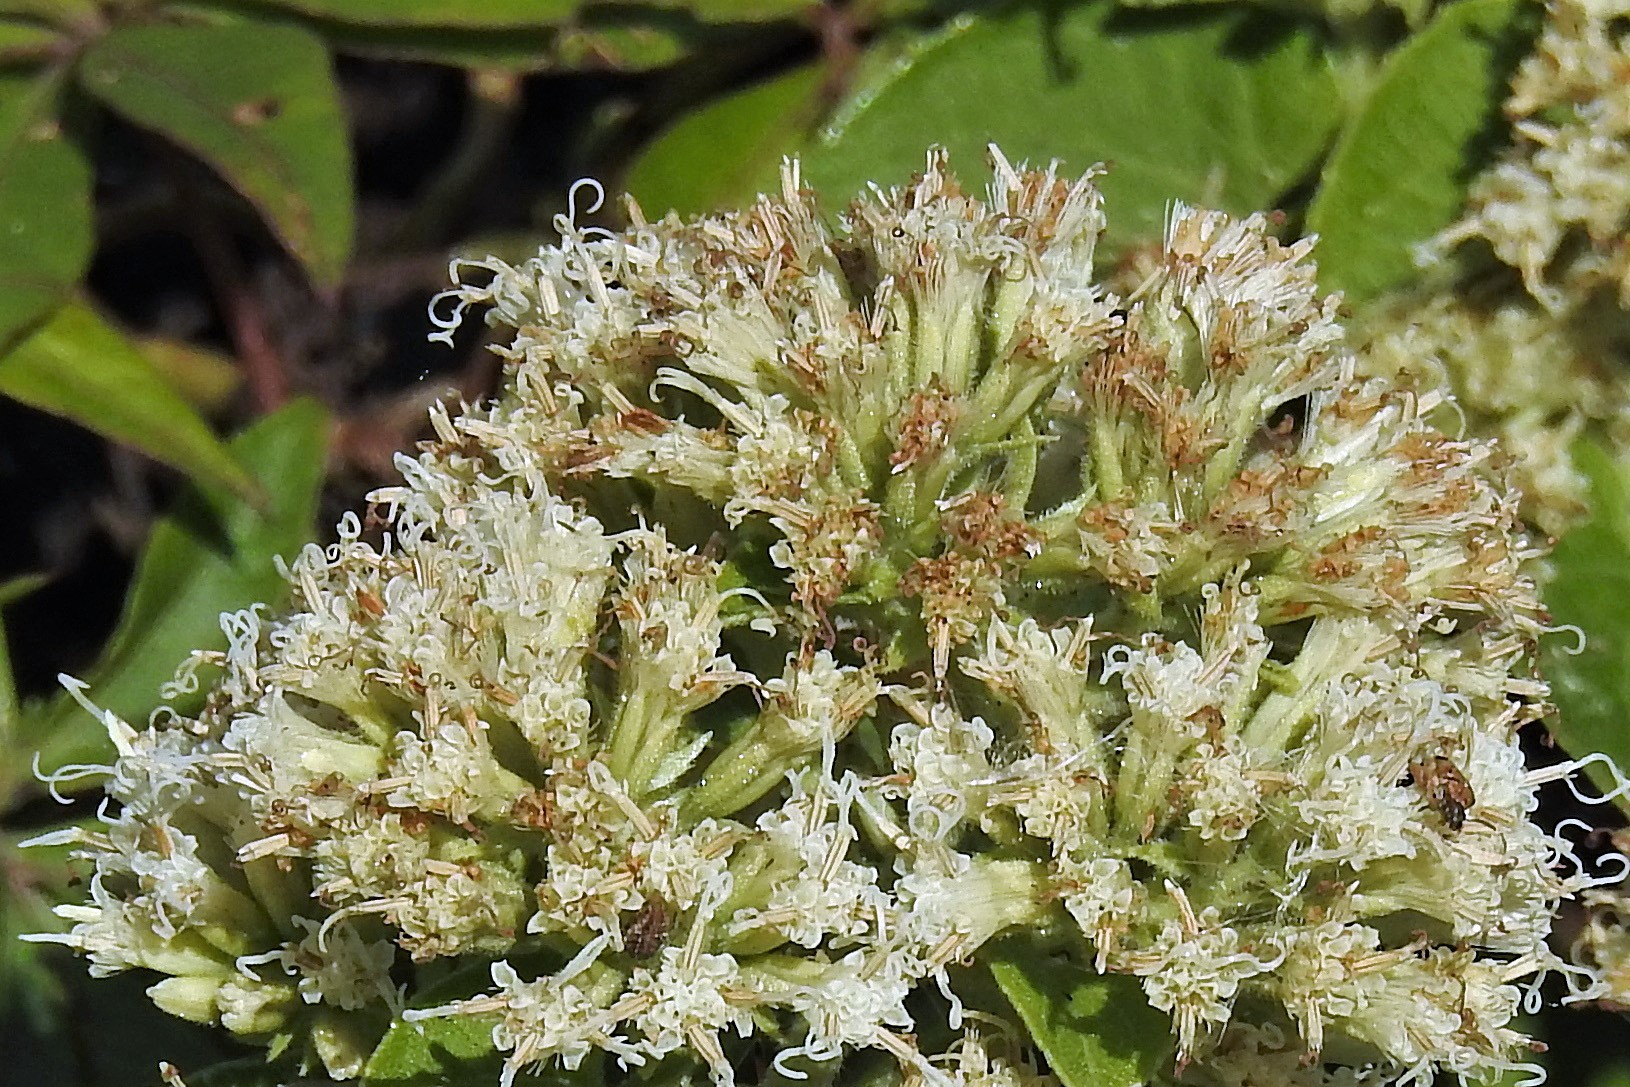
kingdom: Plantae
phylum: Tracheophyta
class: Magnoliopsida
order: Asterales
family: Asteraceae
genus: Mikania
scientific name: Mikania cordifolia
